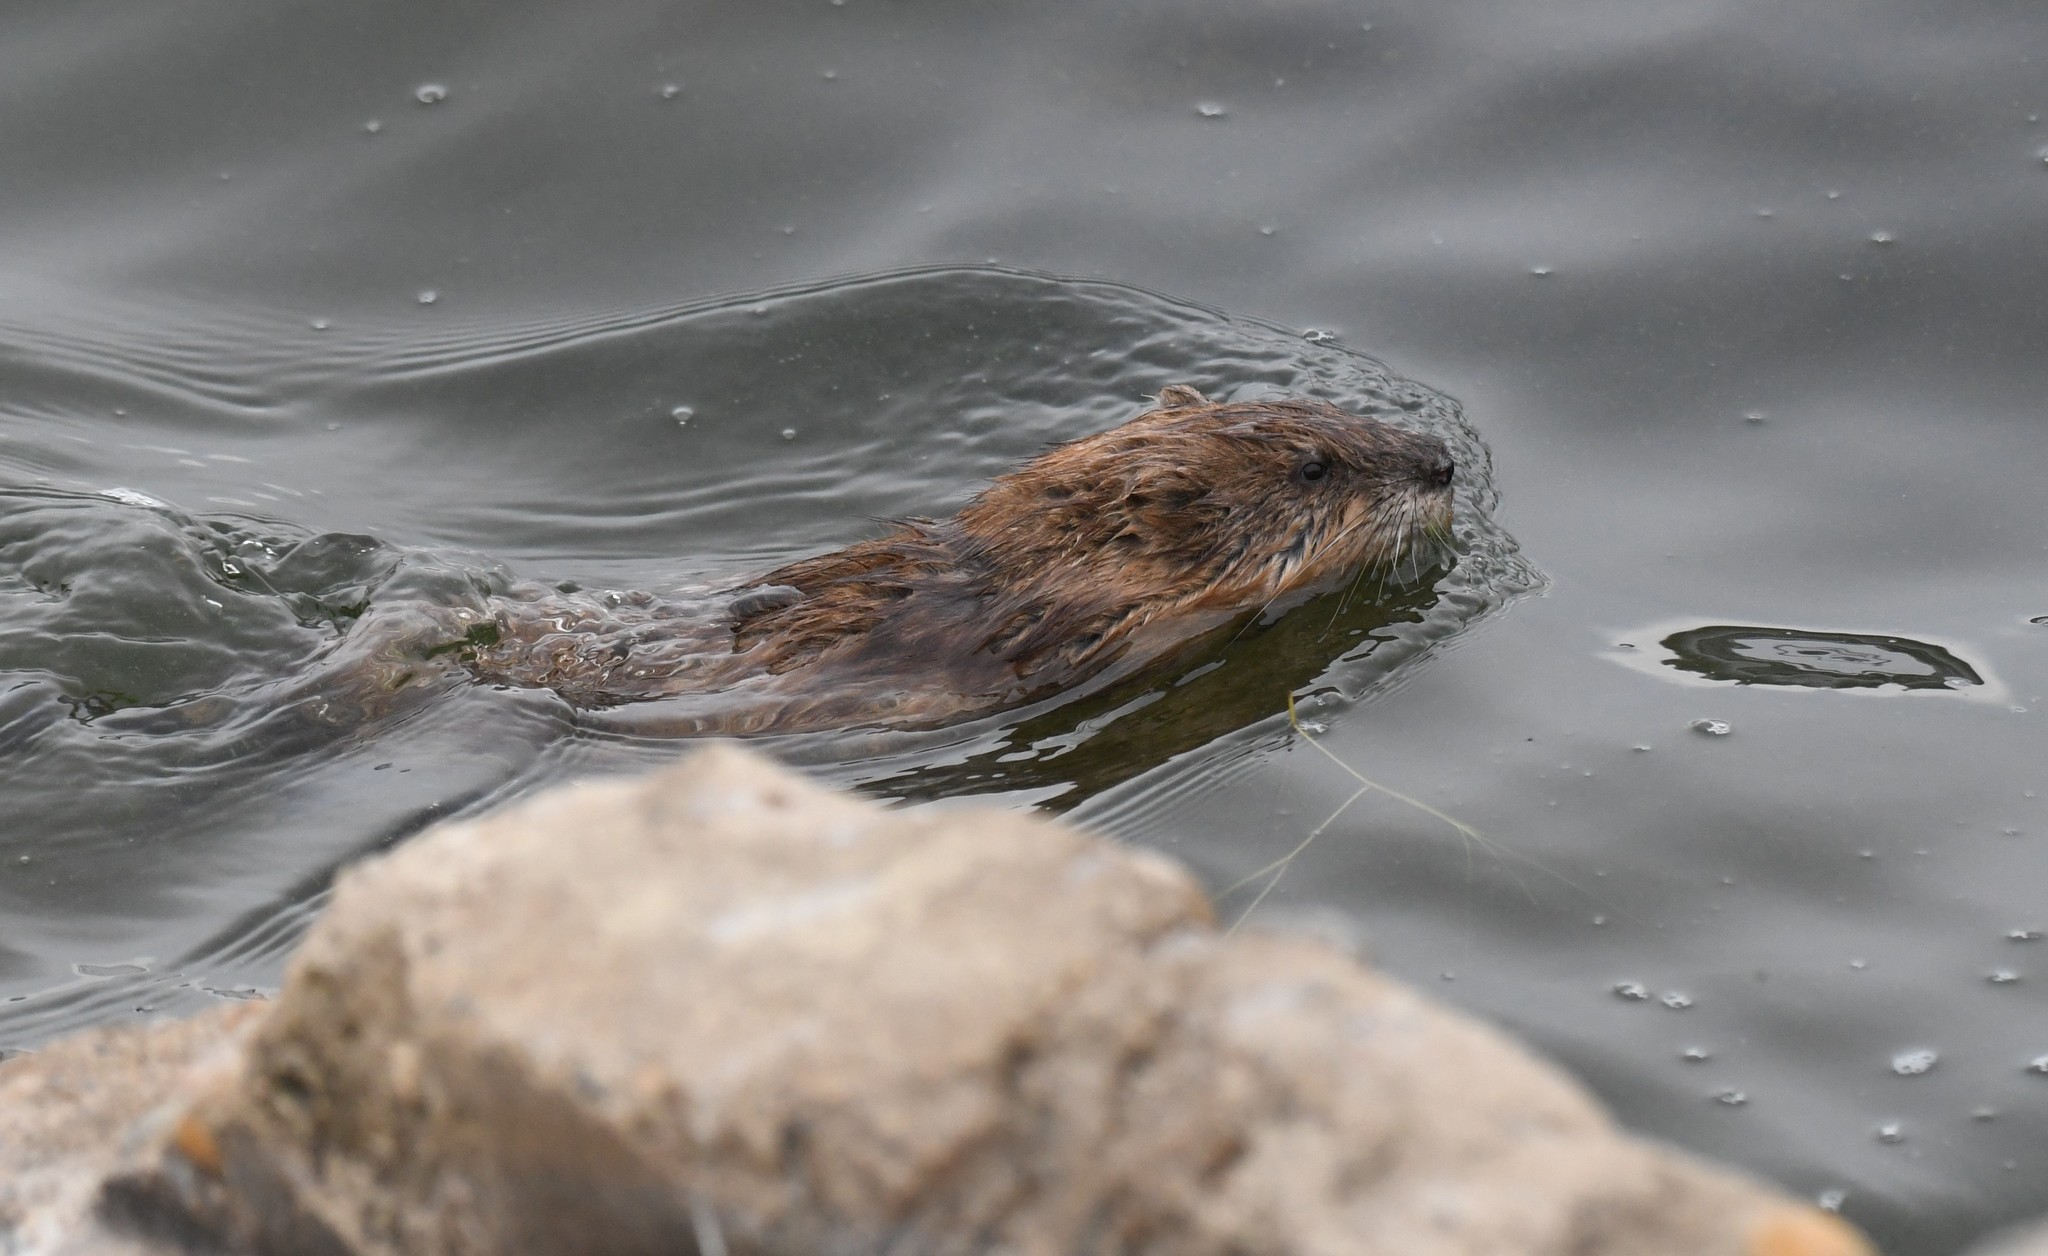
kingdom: Animalia
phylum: Chordata
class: Mammalia
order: Rodentia
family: Cricetidae
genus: Ondatra
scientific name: Ondatra zibethicus
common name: Muskrat
